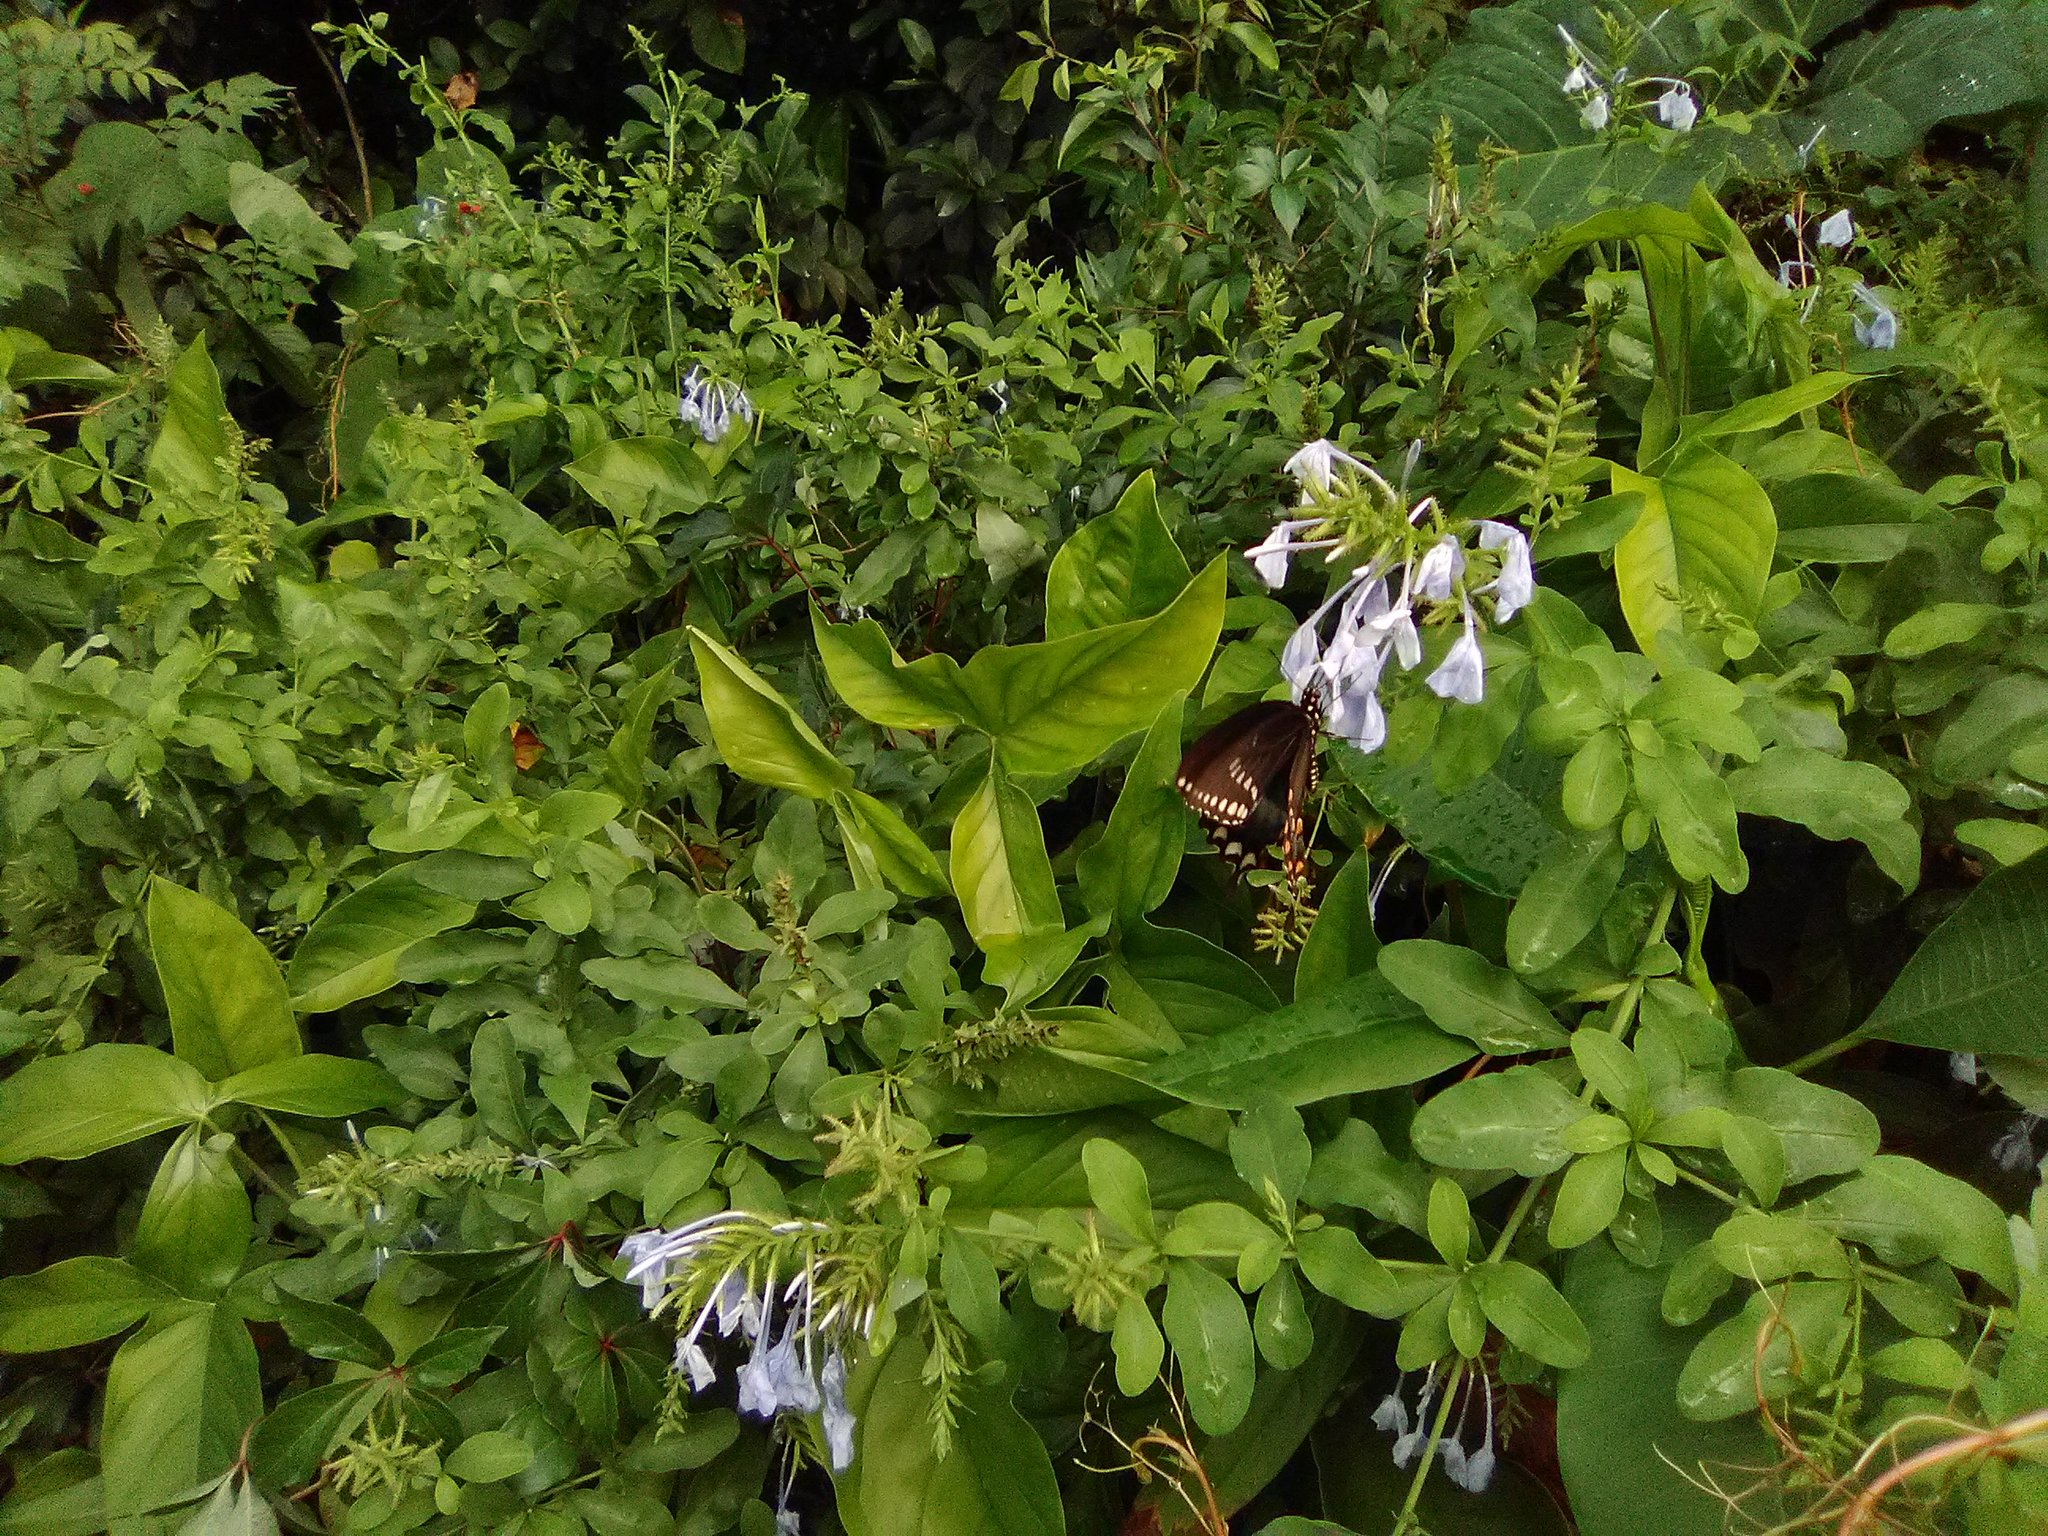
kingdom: Animalia
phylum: Arthropoda
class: Insecta
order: Lepidoptera
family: Papilionidae
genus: Papilio
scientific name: Papilio troilus
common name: Spicebush swallowtail
